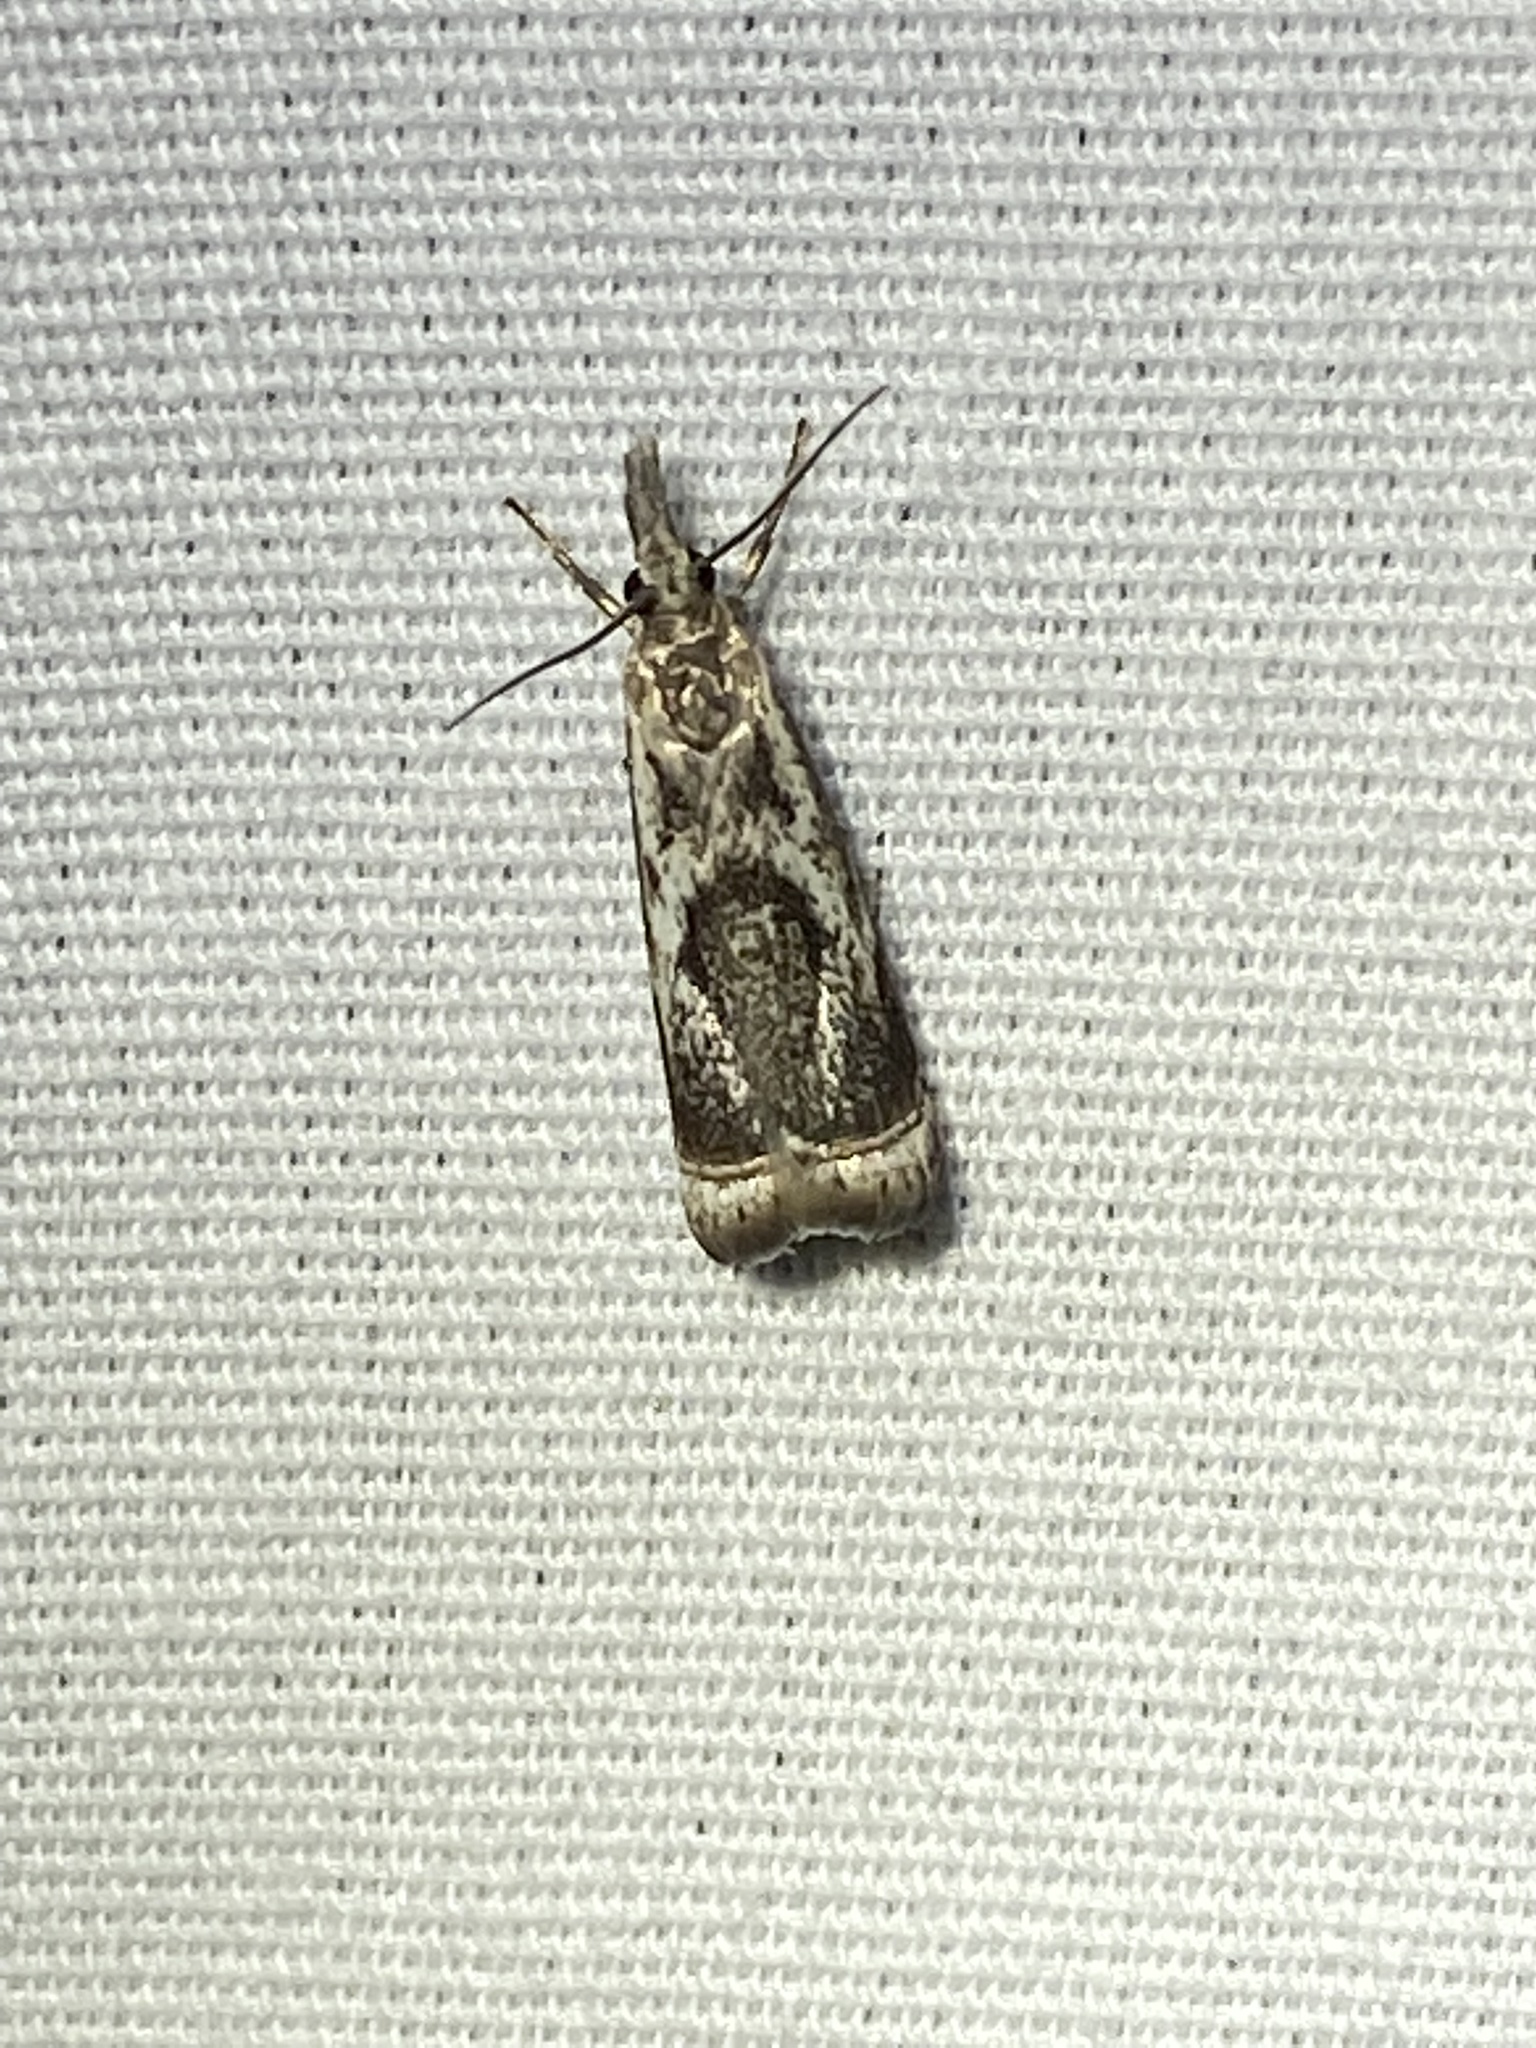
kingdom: Animalia
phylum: Arthropoda
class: Insecta
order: Lepidoptera
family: Crambidae
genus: Microcrambus
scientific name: Microcrambus elegans
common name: Elegant grass-veneer
